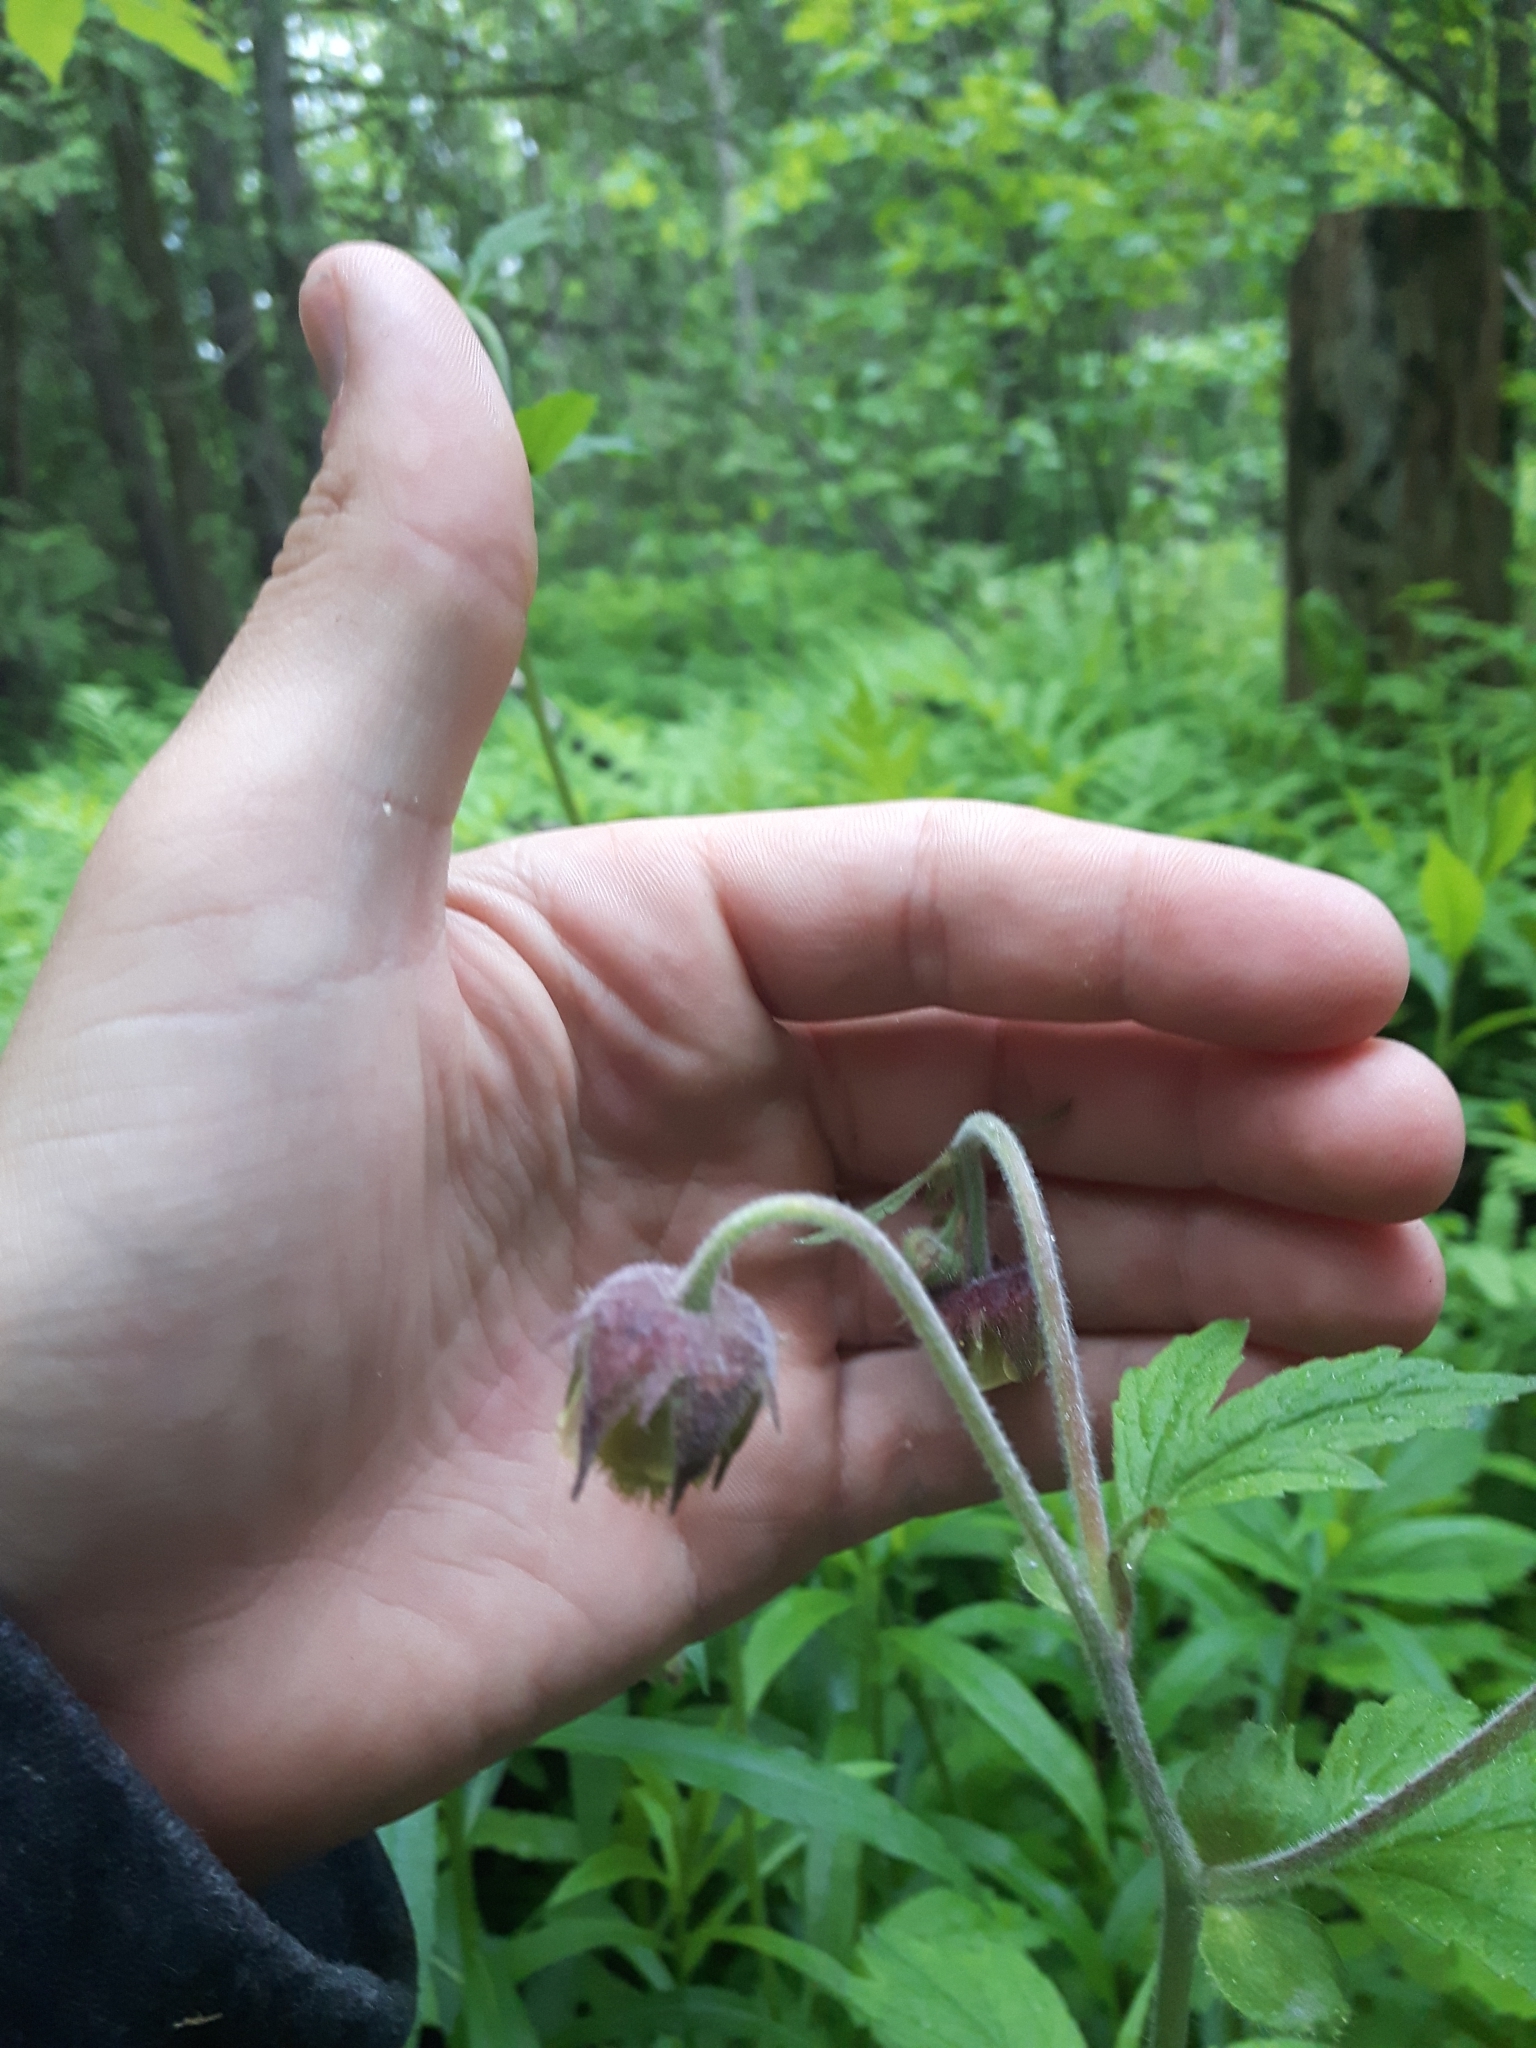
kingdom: Plantae
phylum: Tracheophyta
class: Magnoliopsida
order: Rosales
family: Rosaceae
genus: Geum
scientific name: Geum rivale
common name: Water avens
